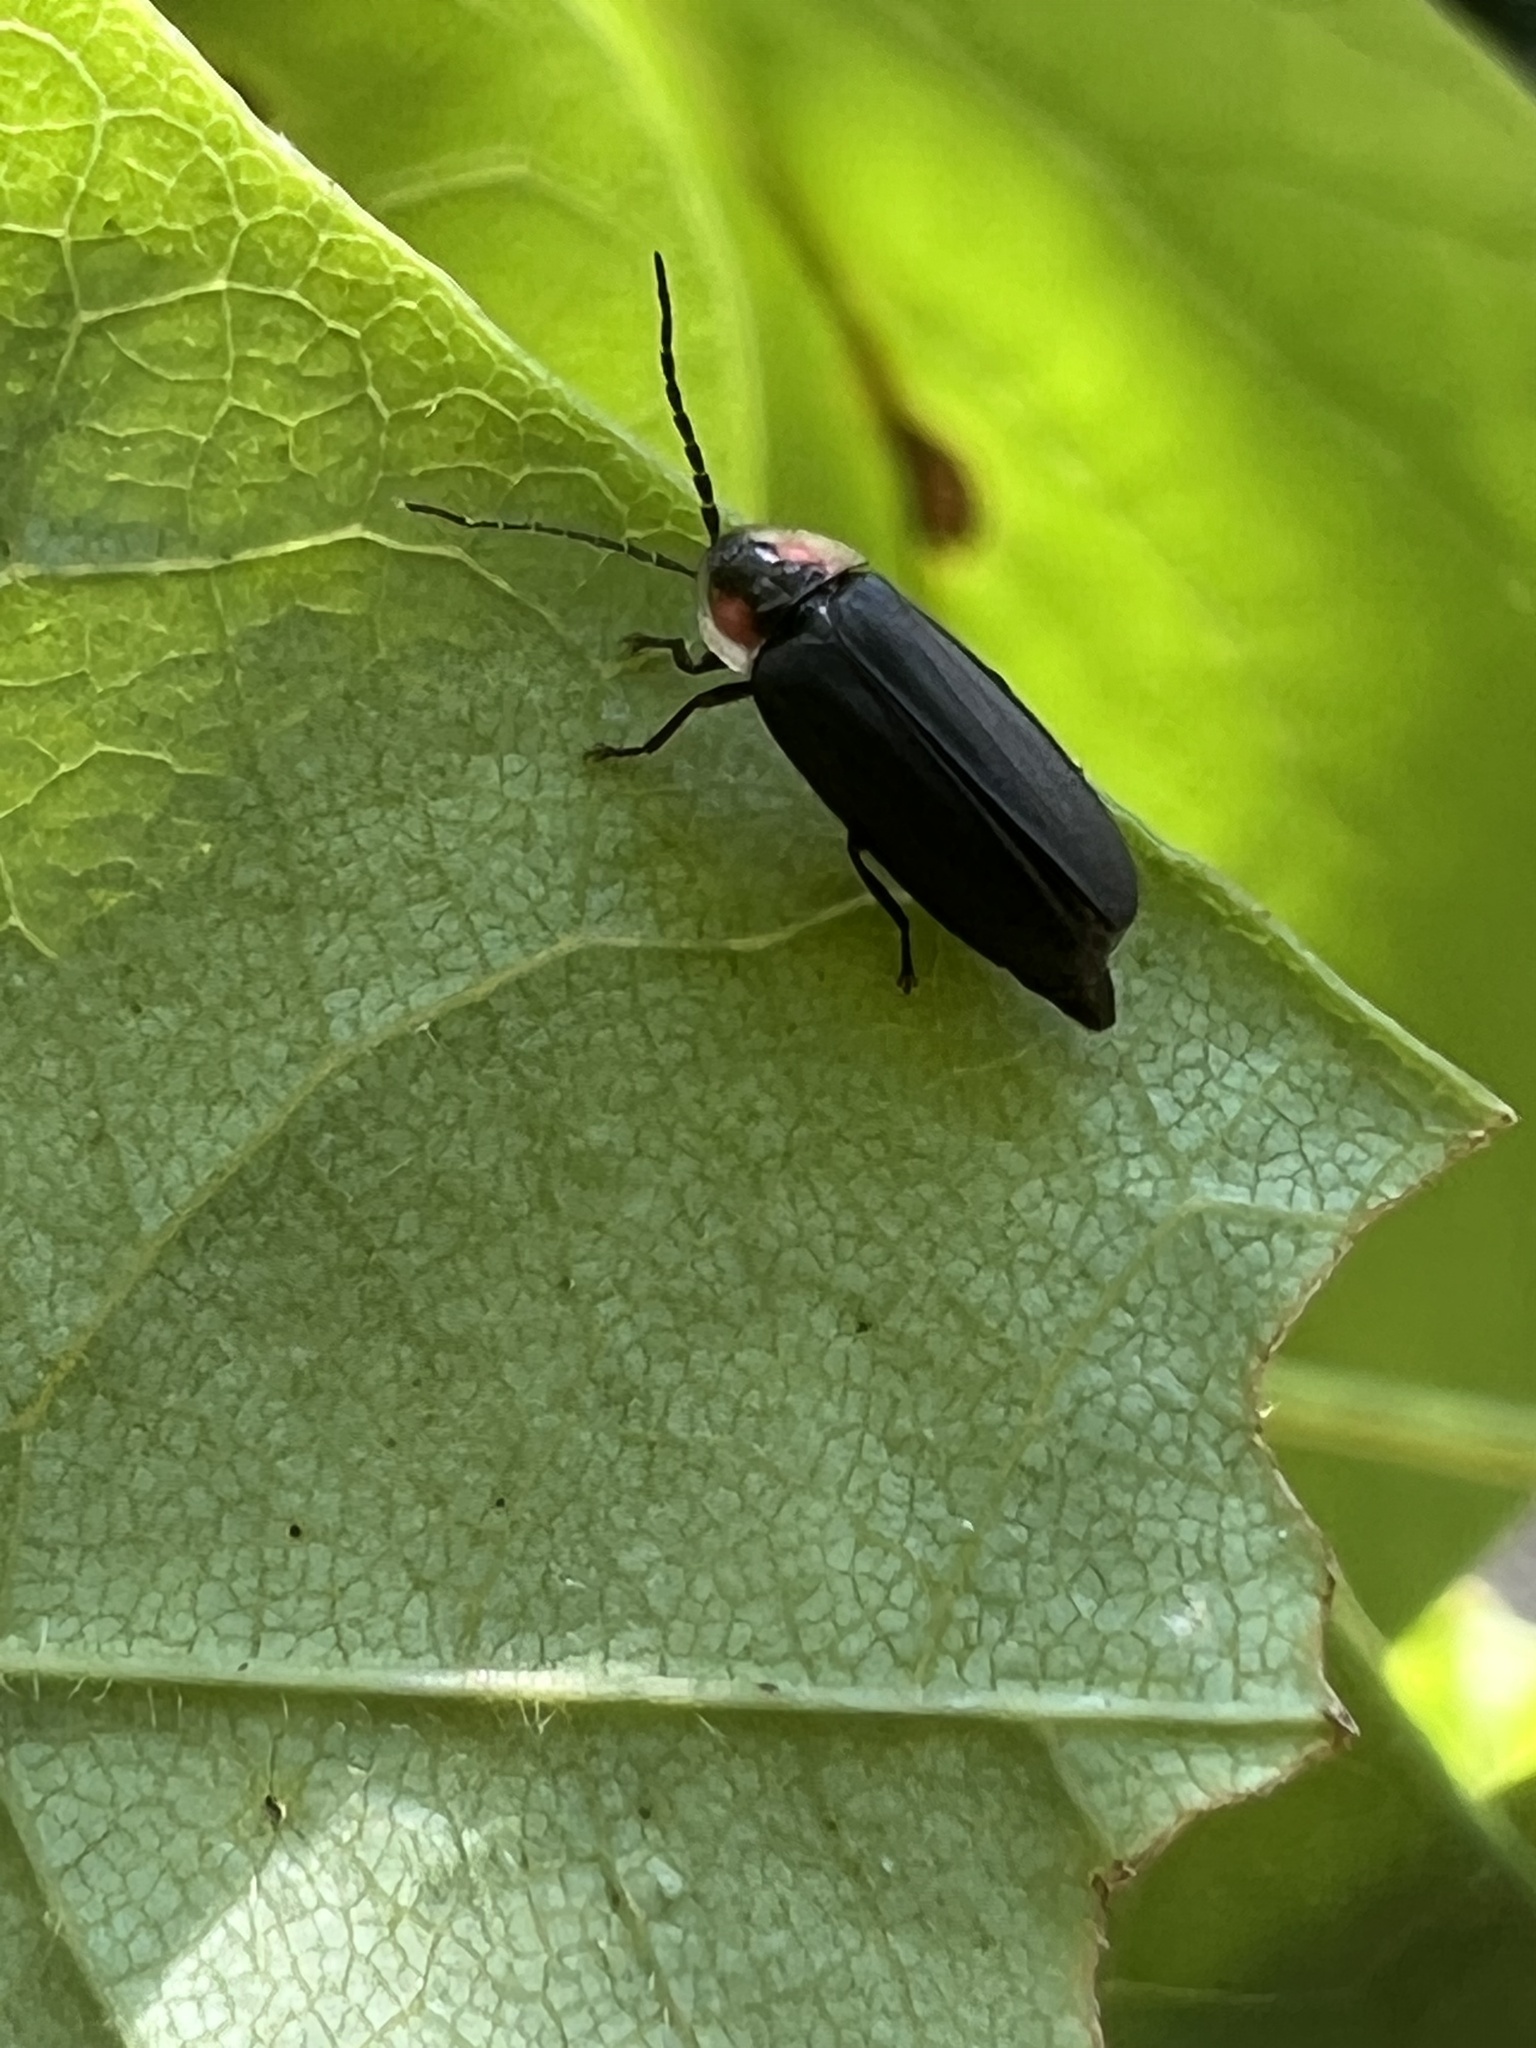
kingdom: Animalia
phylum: Arthropoda
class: Insecta
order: Coleoptera
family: Lampyridae
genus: Lucidota
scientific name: Lucidota atra
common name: Black firefly
